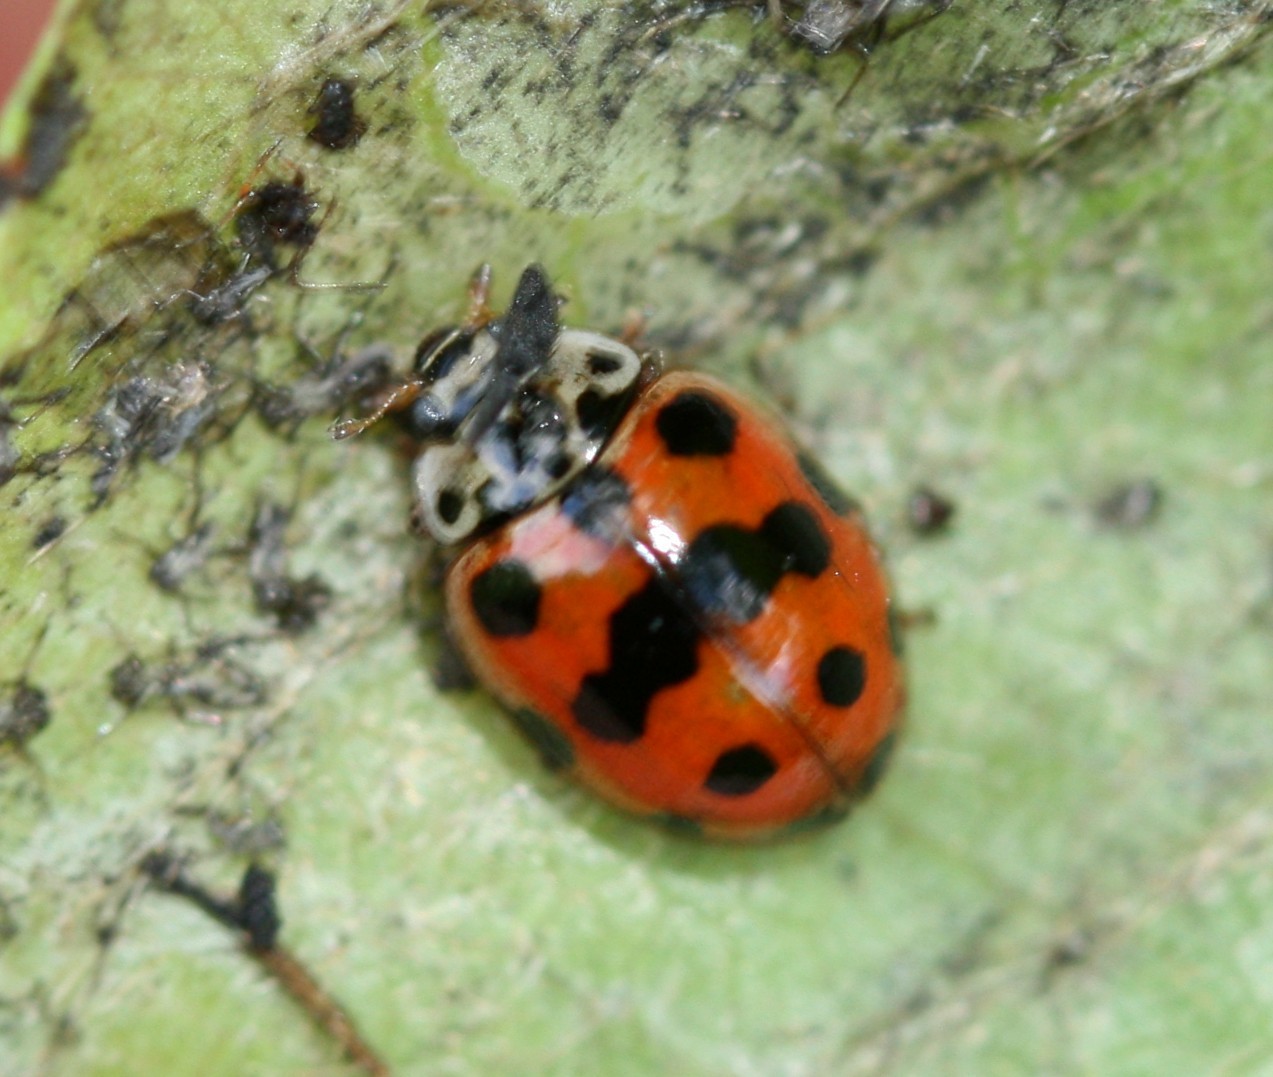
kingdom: Animalia
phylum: Arthropoda
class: Insecta
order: Coleoptera
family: Coccinellidae
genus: Adalia
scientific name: Adalia decempunctata
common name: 10-spot ladybird
